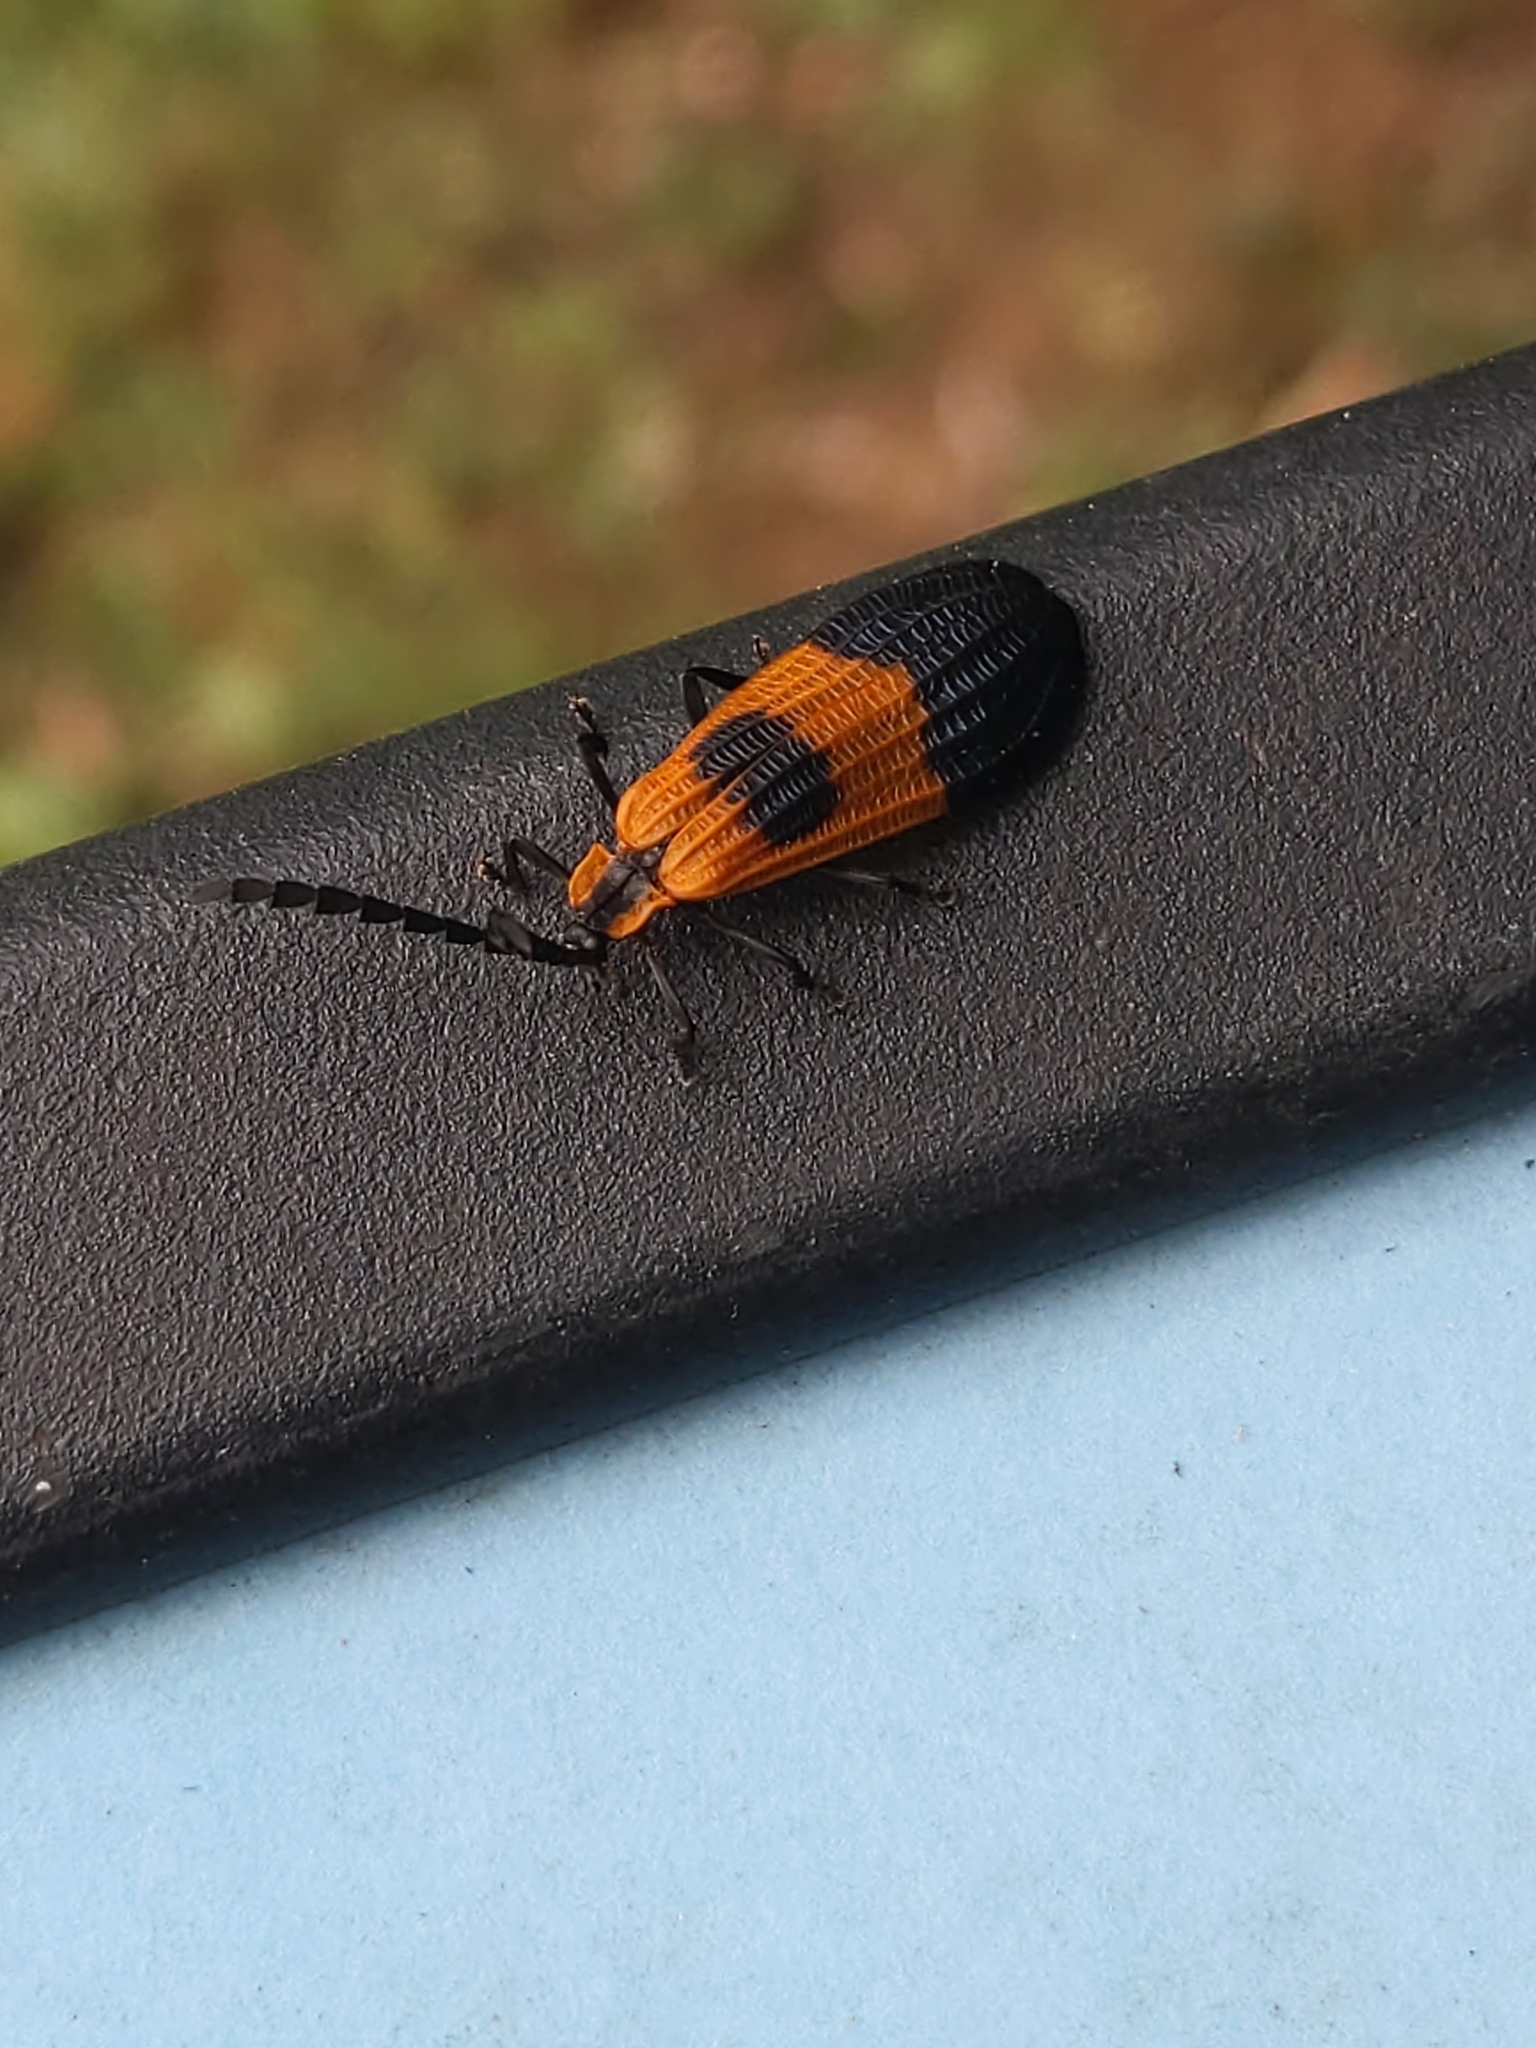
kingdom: Animalia
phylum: Arthropoda
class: Insecta
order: Coleoptera
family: Lycidae
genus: Calopteron
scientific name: Calopteron terminale
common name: End band net-winged beetle
